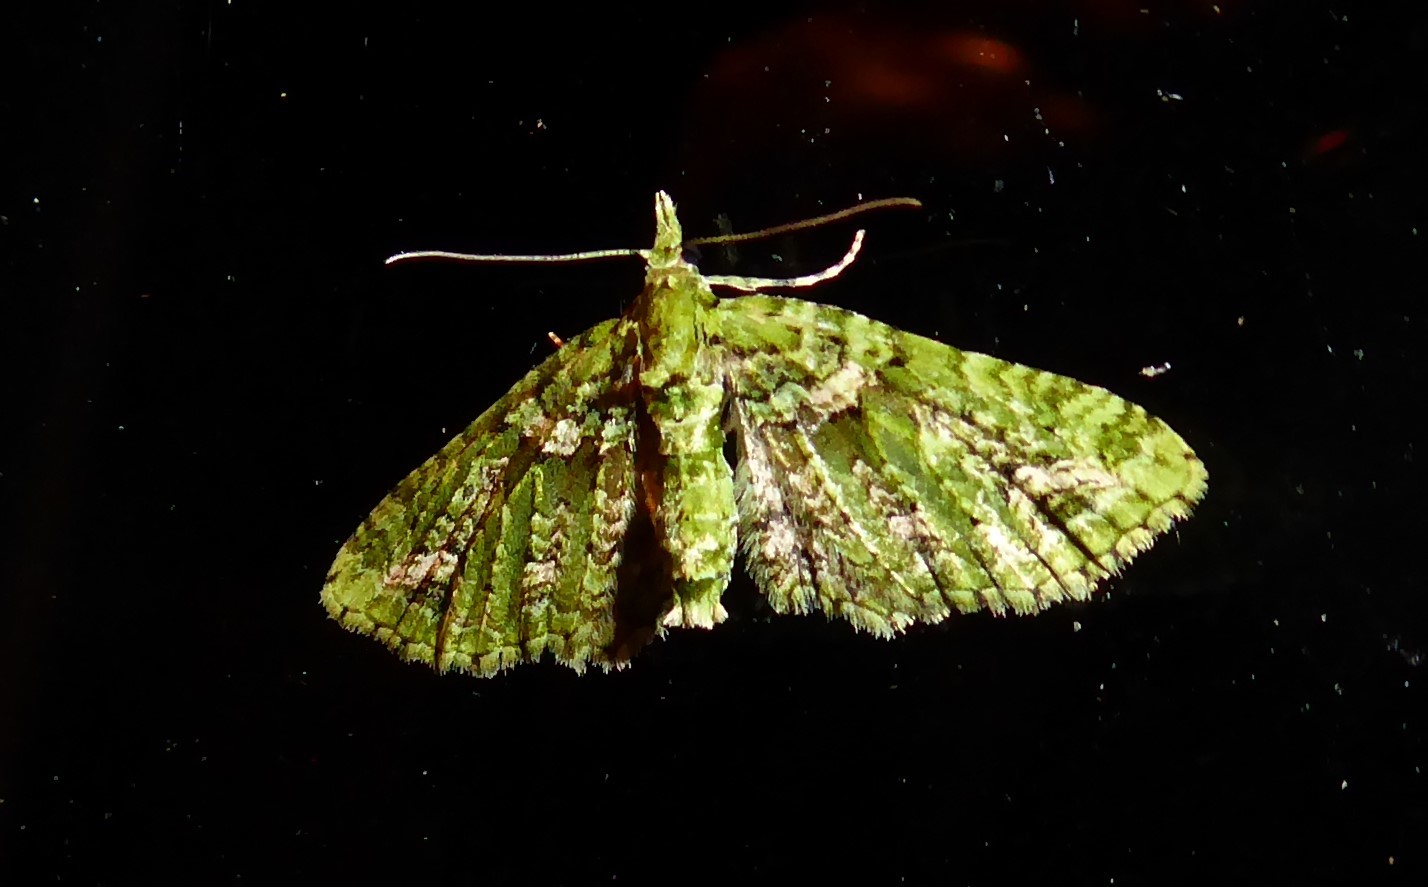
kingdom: Animalia
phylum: Arthropoda
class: Insecta
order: Lepidoptera
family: Geometridae
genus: Pasiphila
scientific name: Pasiphila muscosata
